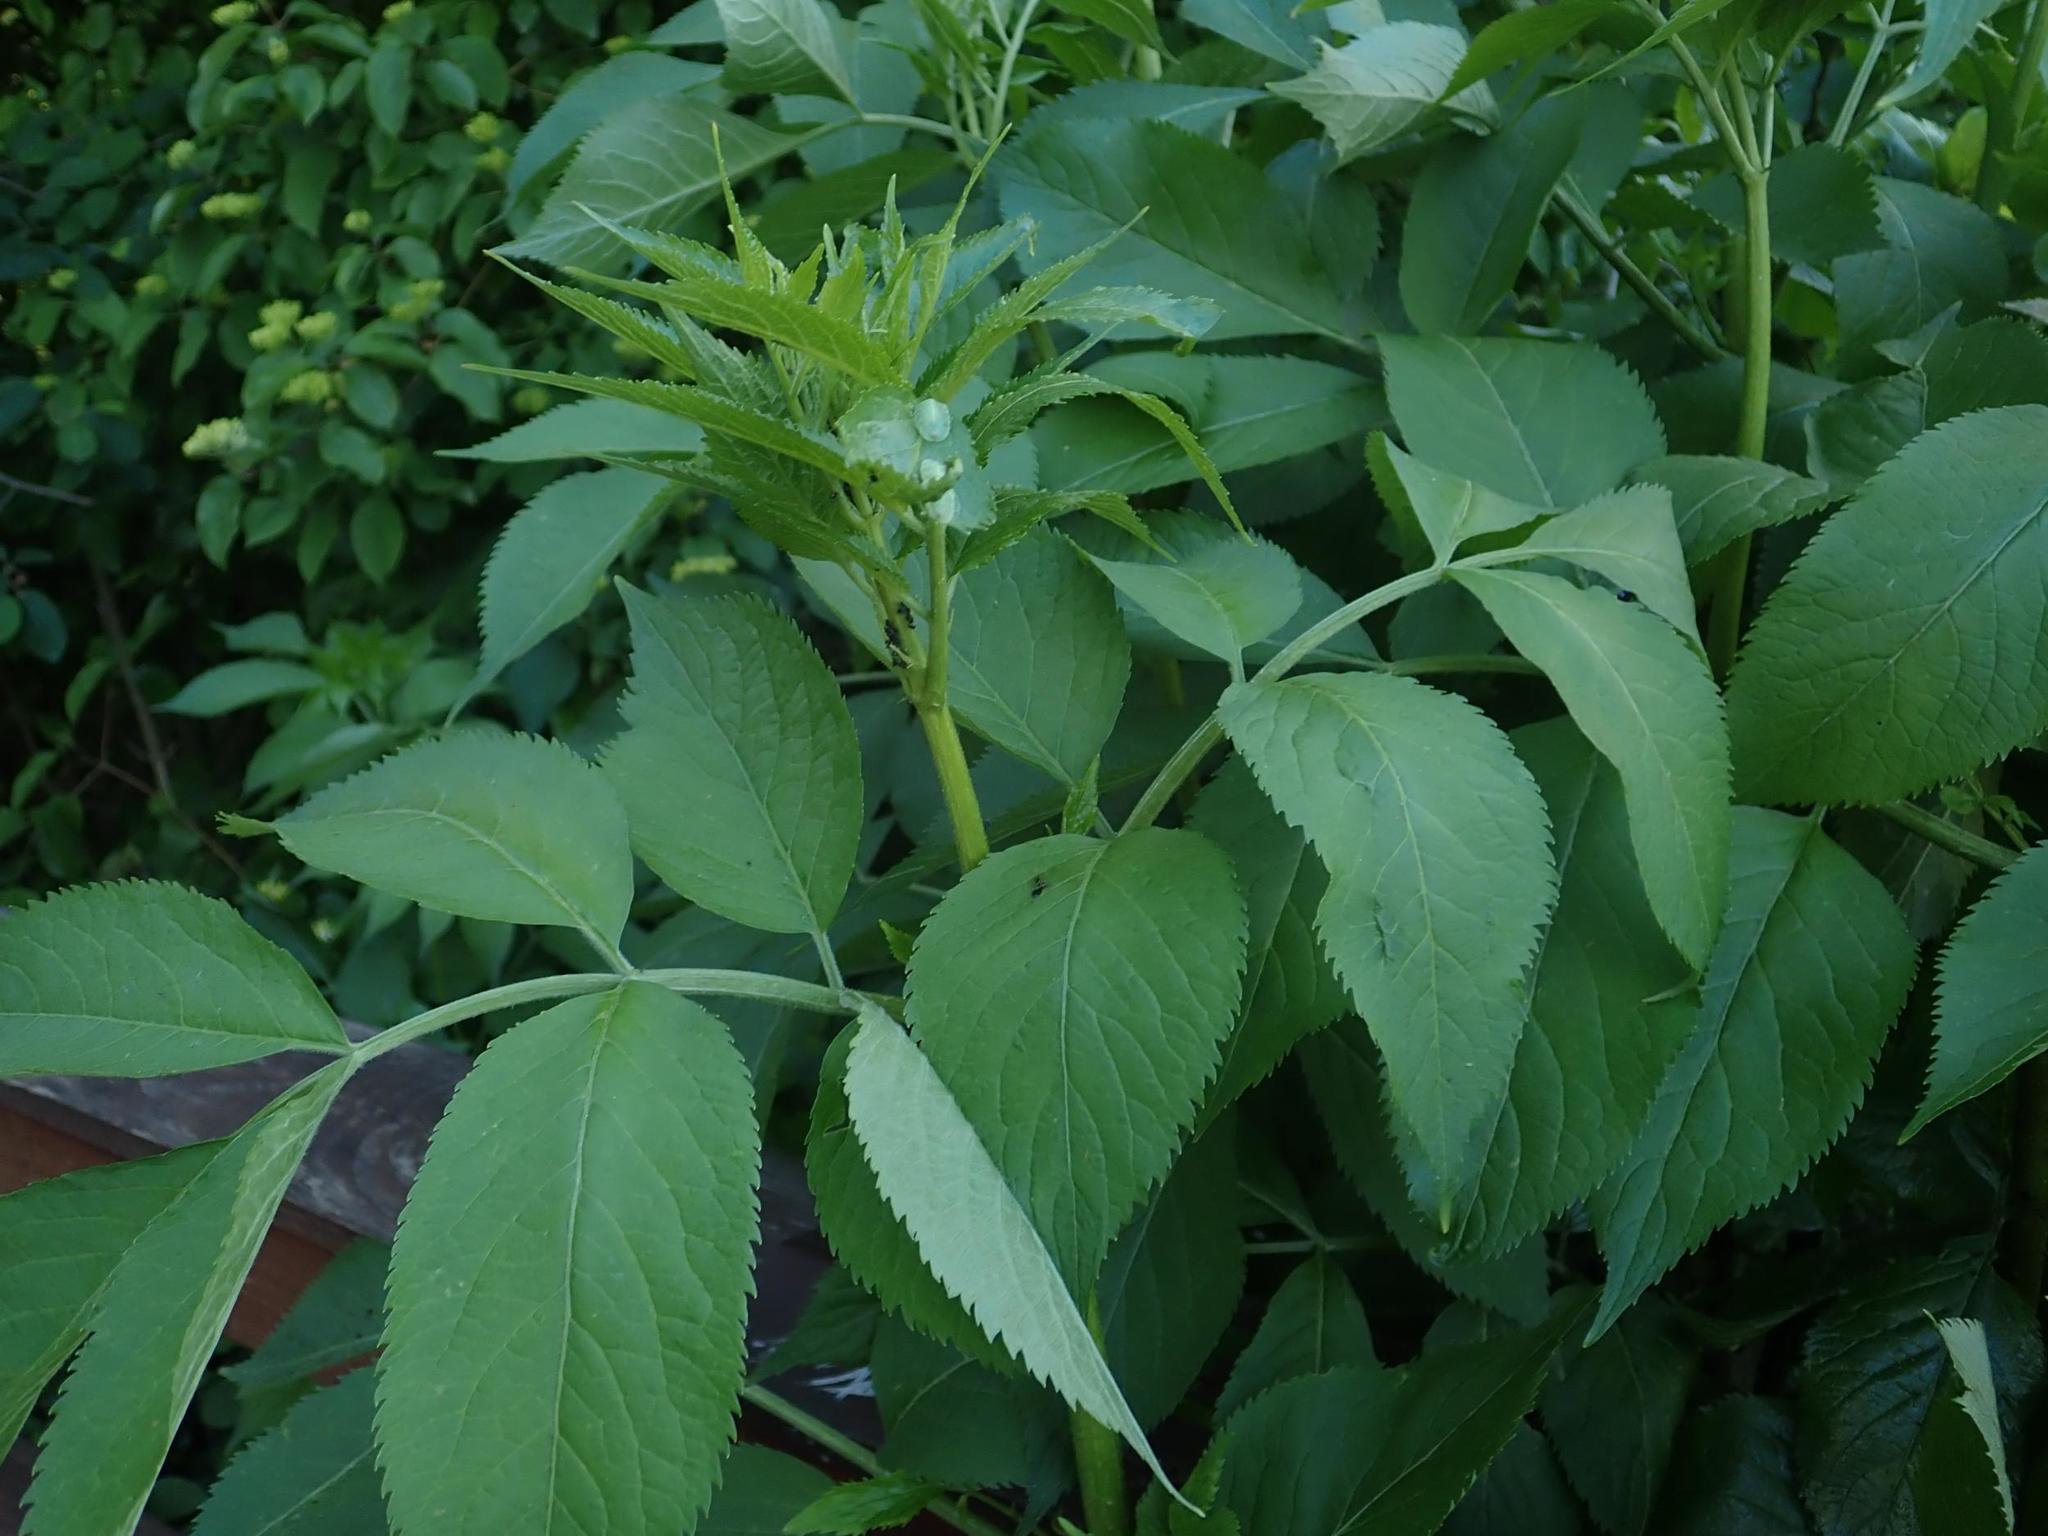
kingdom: Plantae
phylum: Tracheophyta
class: Magnoliopsida
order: Dipsacales
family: Viburnaceae
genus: Sambucus
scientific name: Sambucus nigra
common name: Elder
